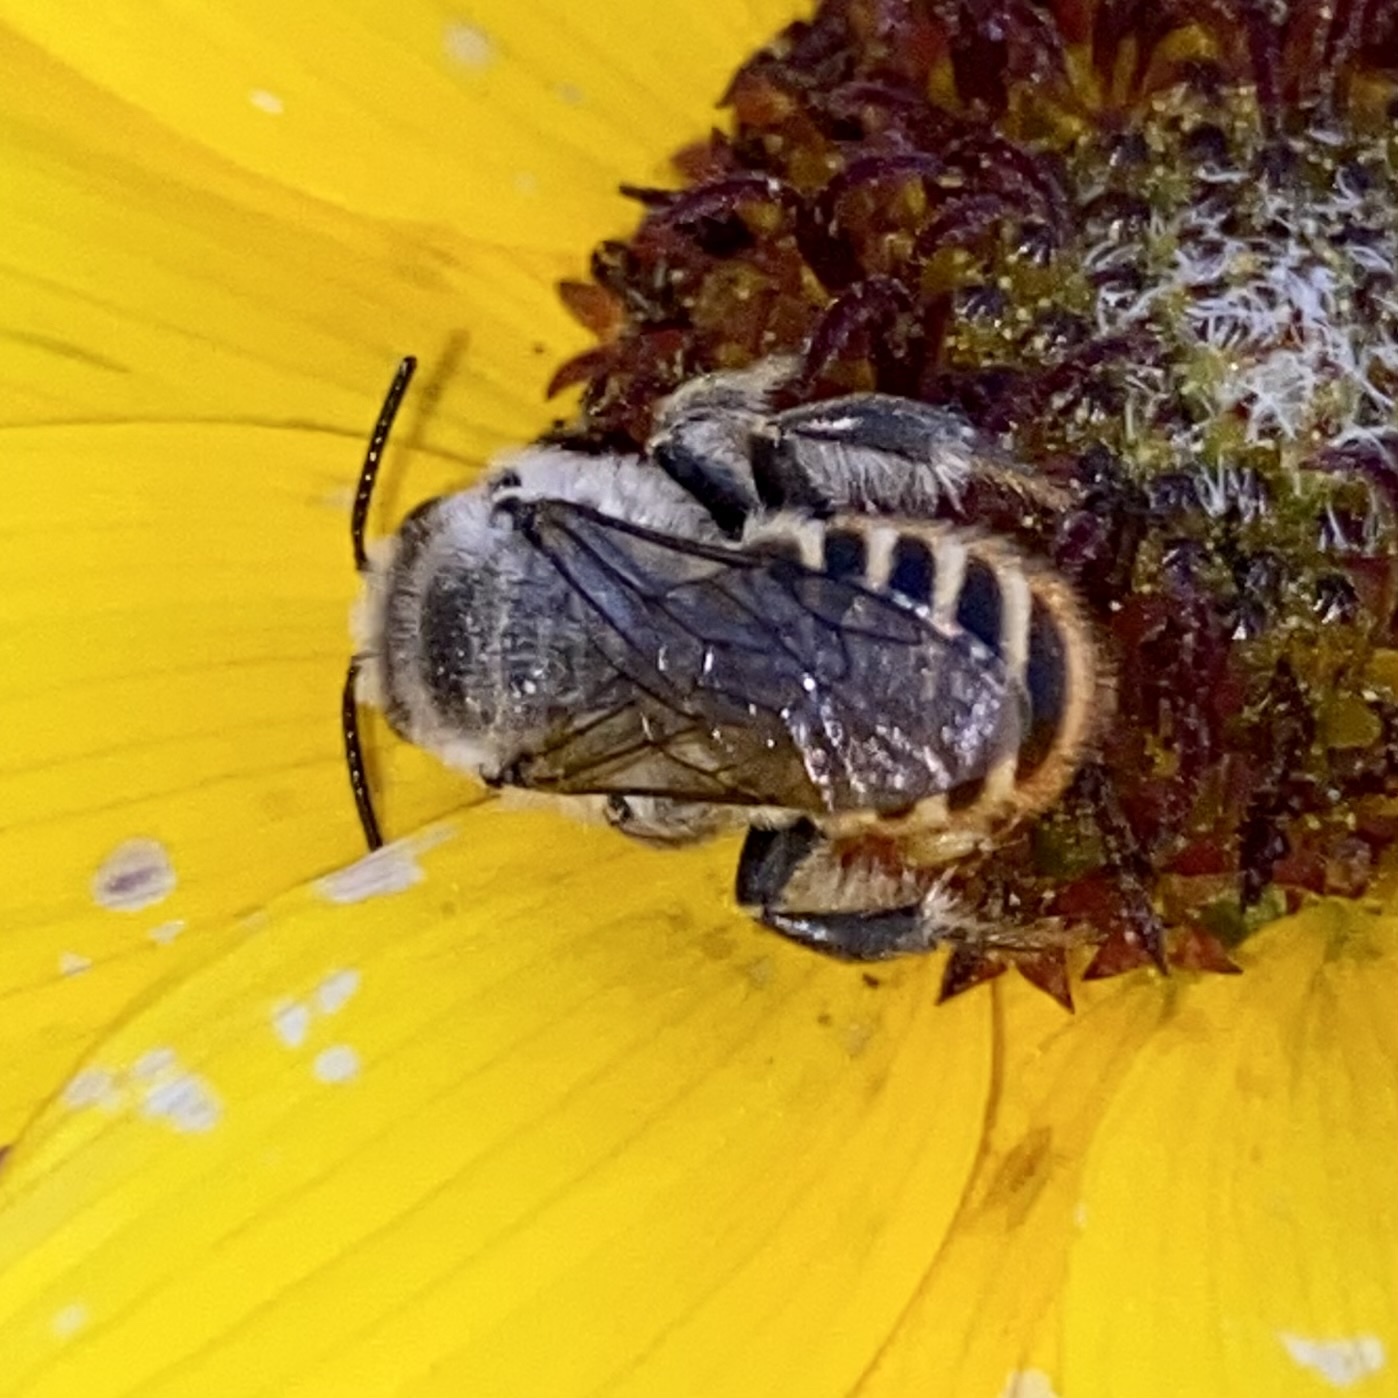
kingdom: Animalia
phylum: Arthropoda
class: Insecta
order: Hymenoptera
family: Megachilidae
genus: Lithurgopsis
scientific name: Lithurgopsis apicalis
